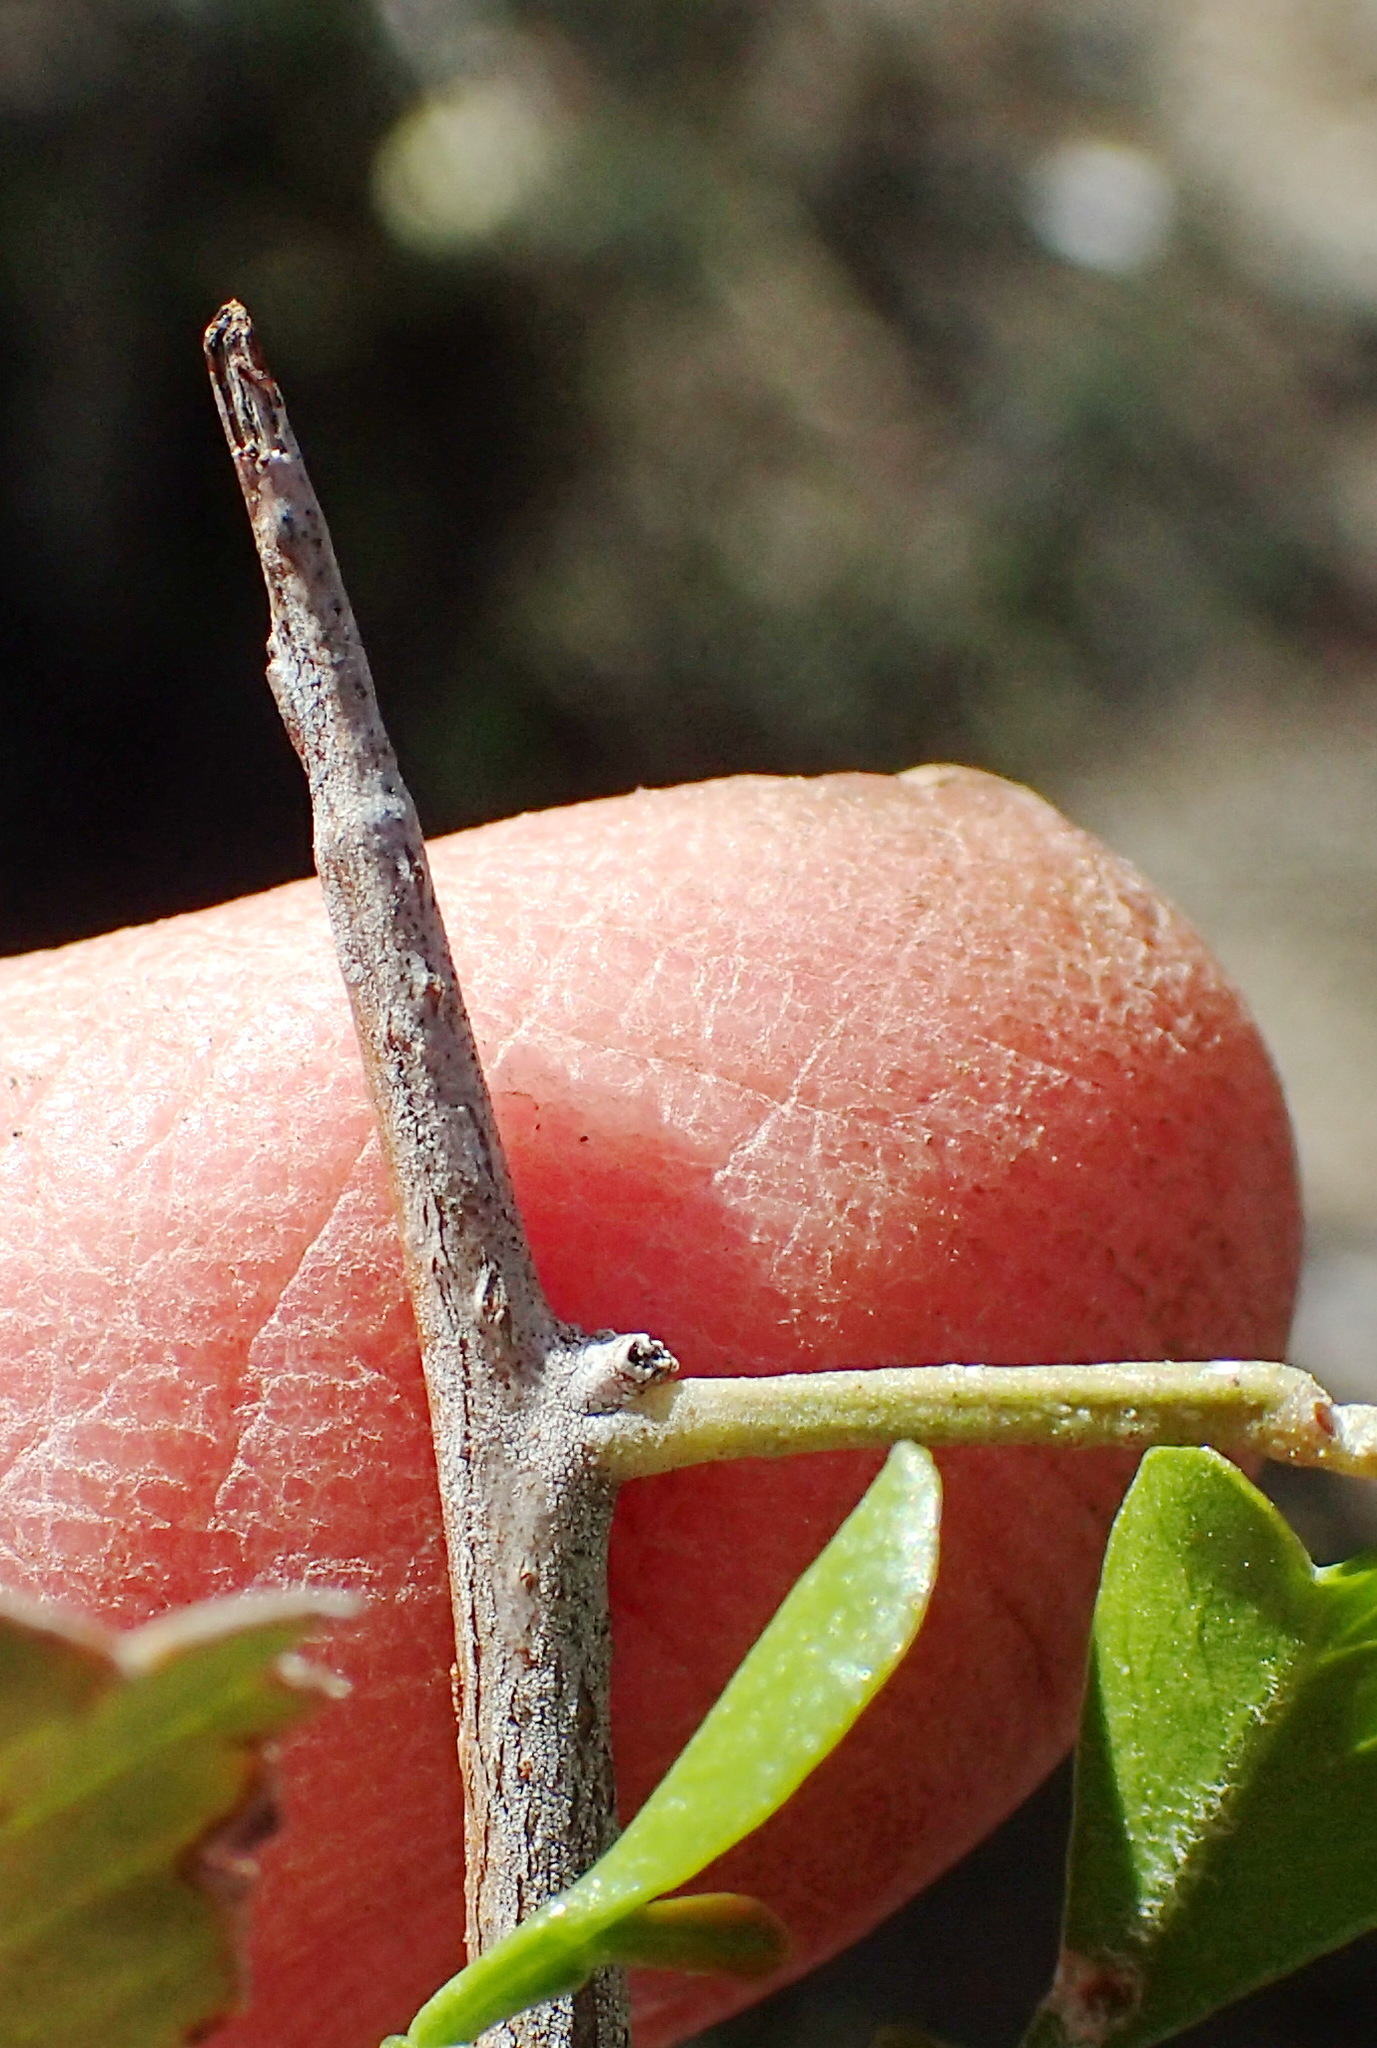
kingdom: Plantae
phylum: Tracheophyta
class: Magnoliopsida
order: Sapindales
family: Anacardiaceae
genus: Searsia
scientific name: Searsia longispina
